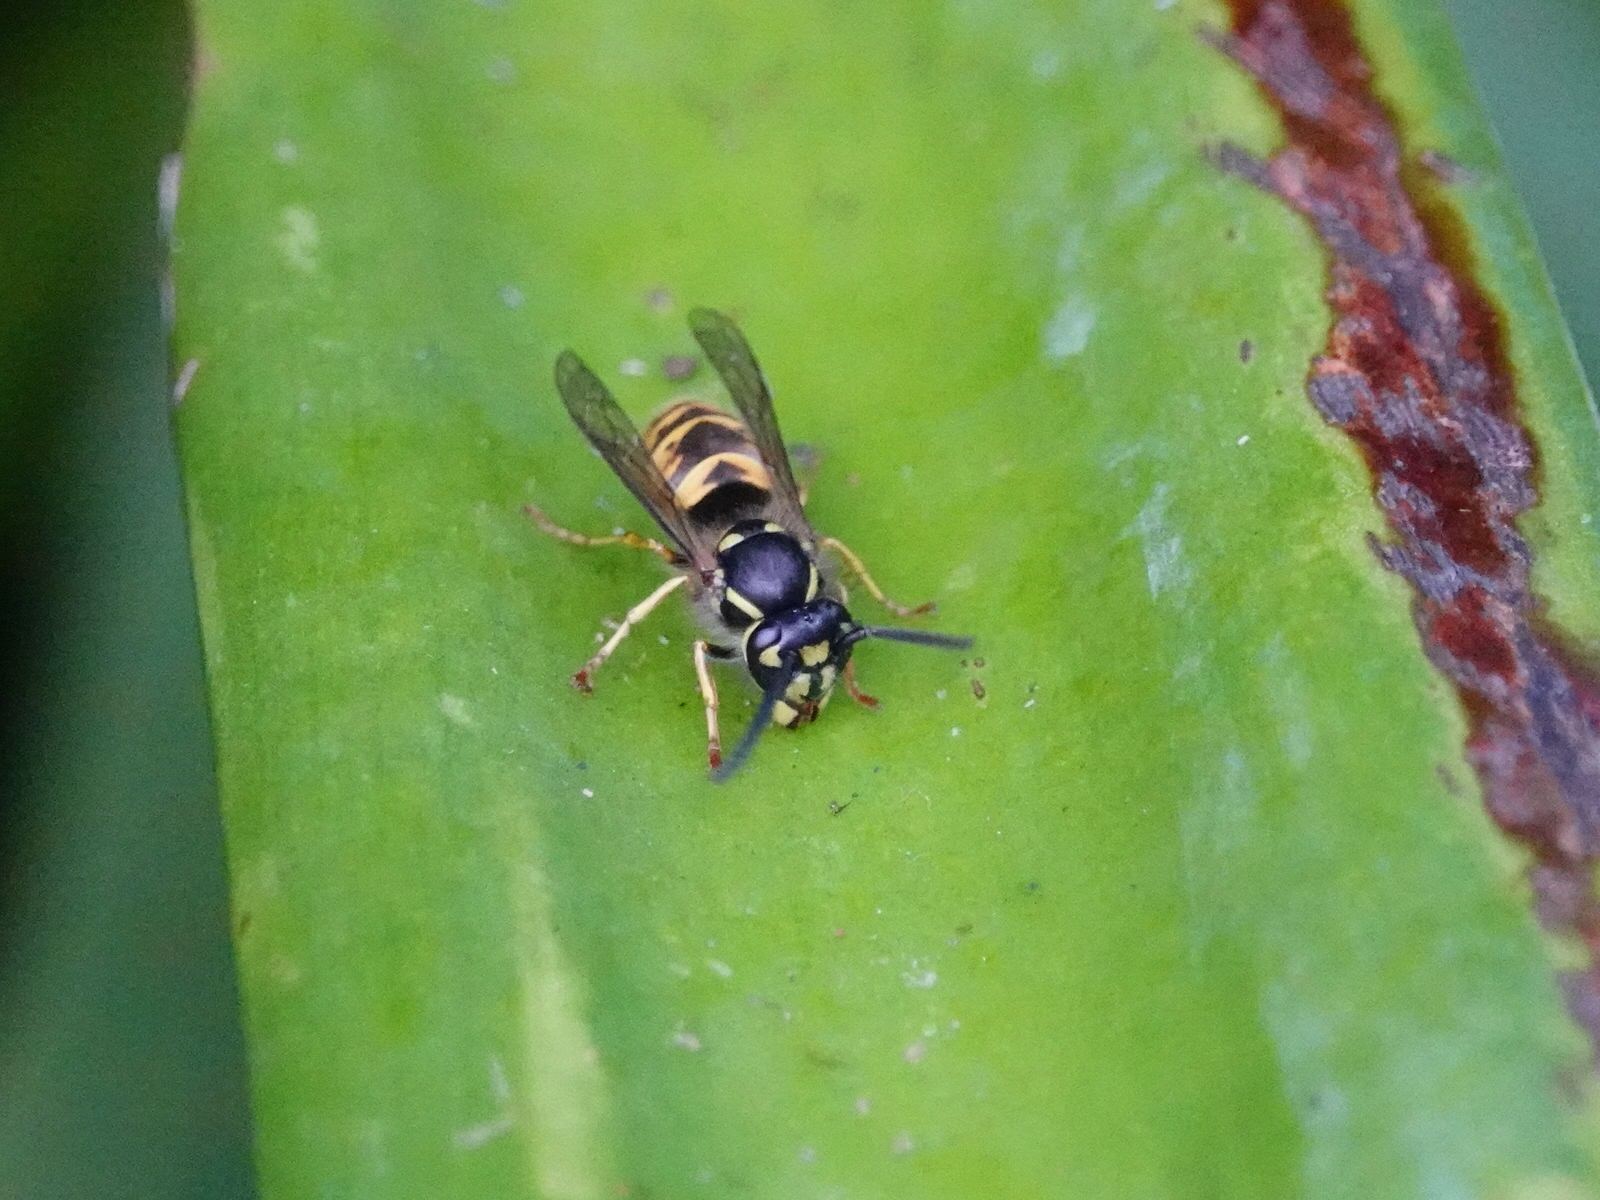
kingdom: Animalia
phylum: Arthropoda
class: Insecta
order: Hymenoptera
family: Vespidae
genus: Vespula
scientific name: Vespula vulgaris
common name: Common wasp
